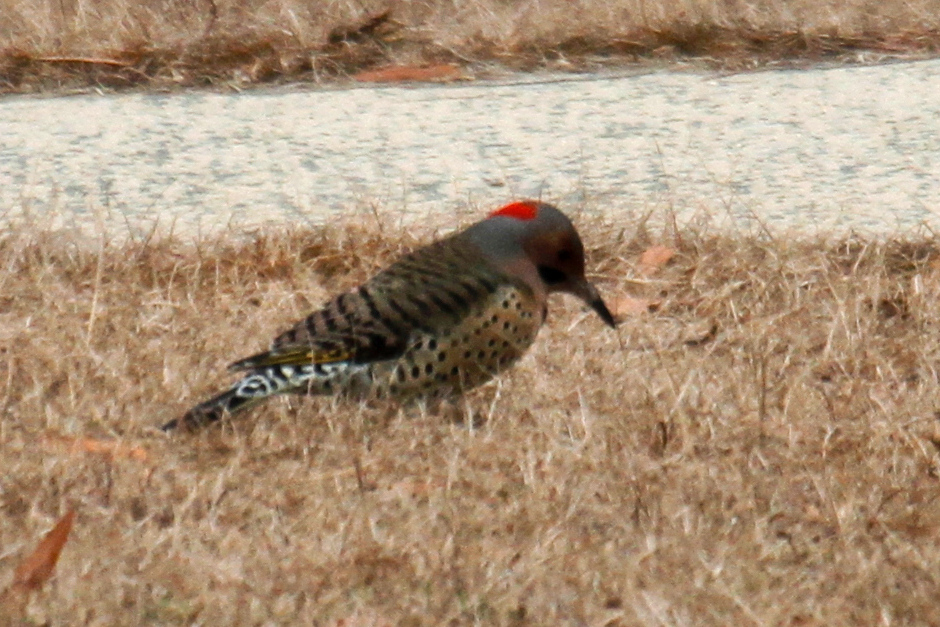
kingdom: Animalia
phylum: Chordata
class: Aves
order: Piciformes
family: Picidae
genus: Colaptes
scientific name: Colaptes auratus
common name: Northern flicker
